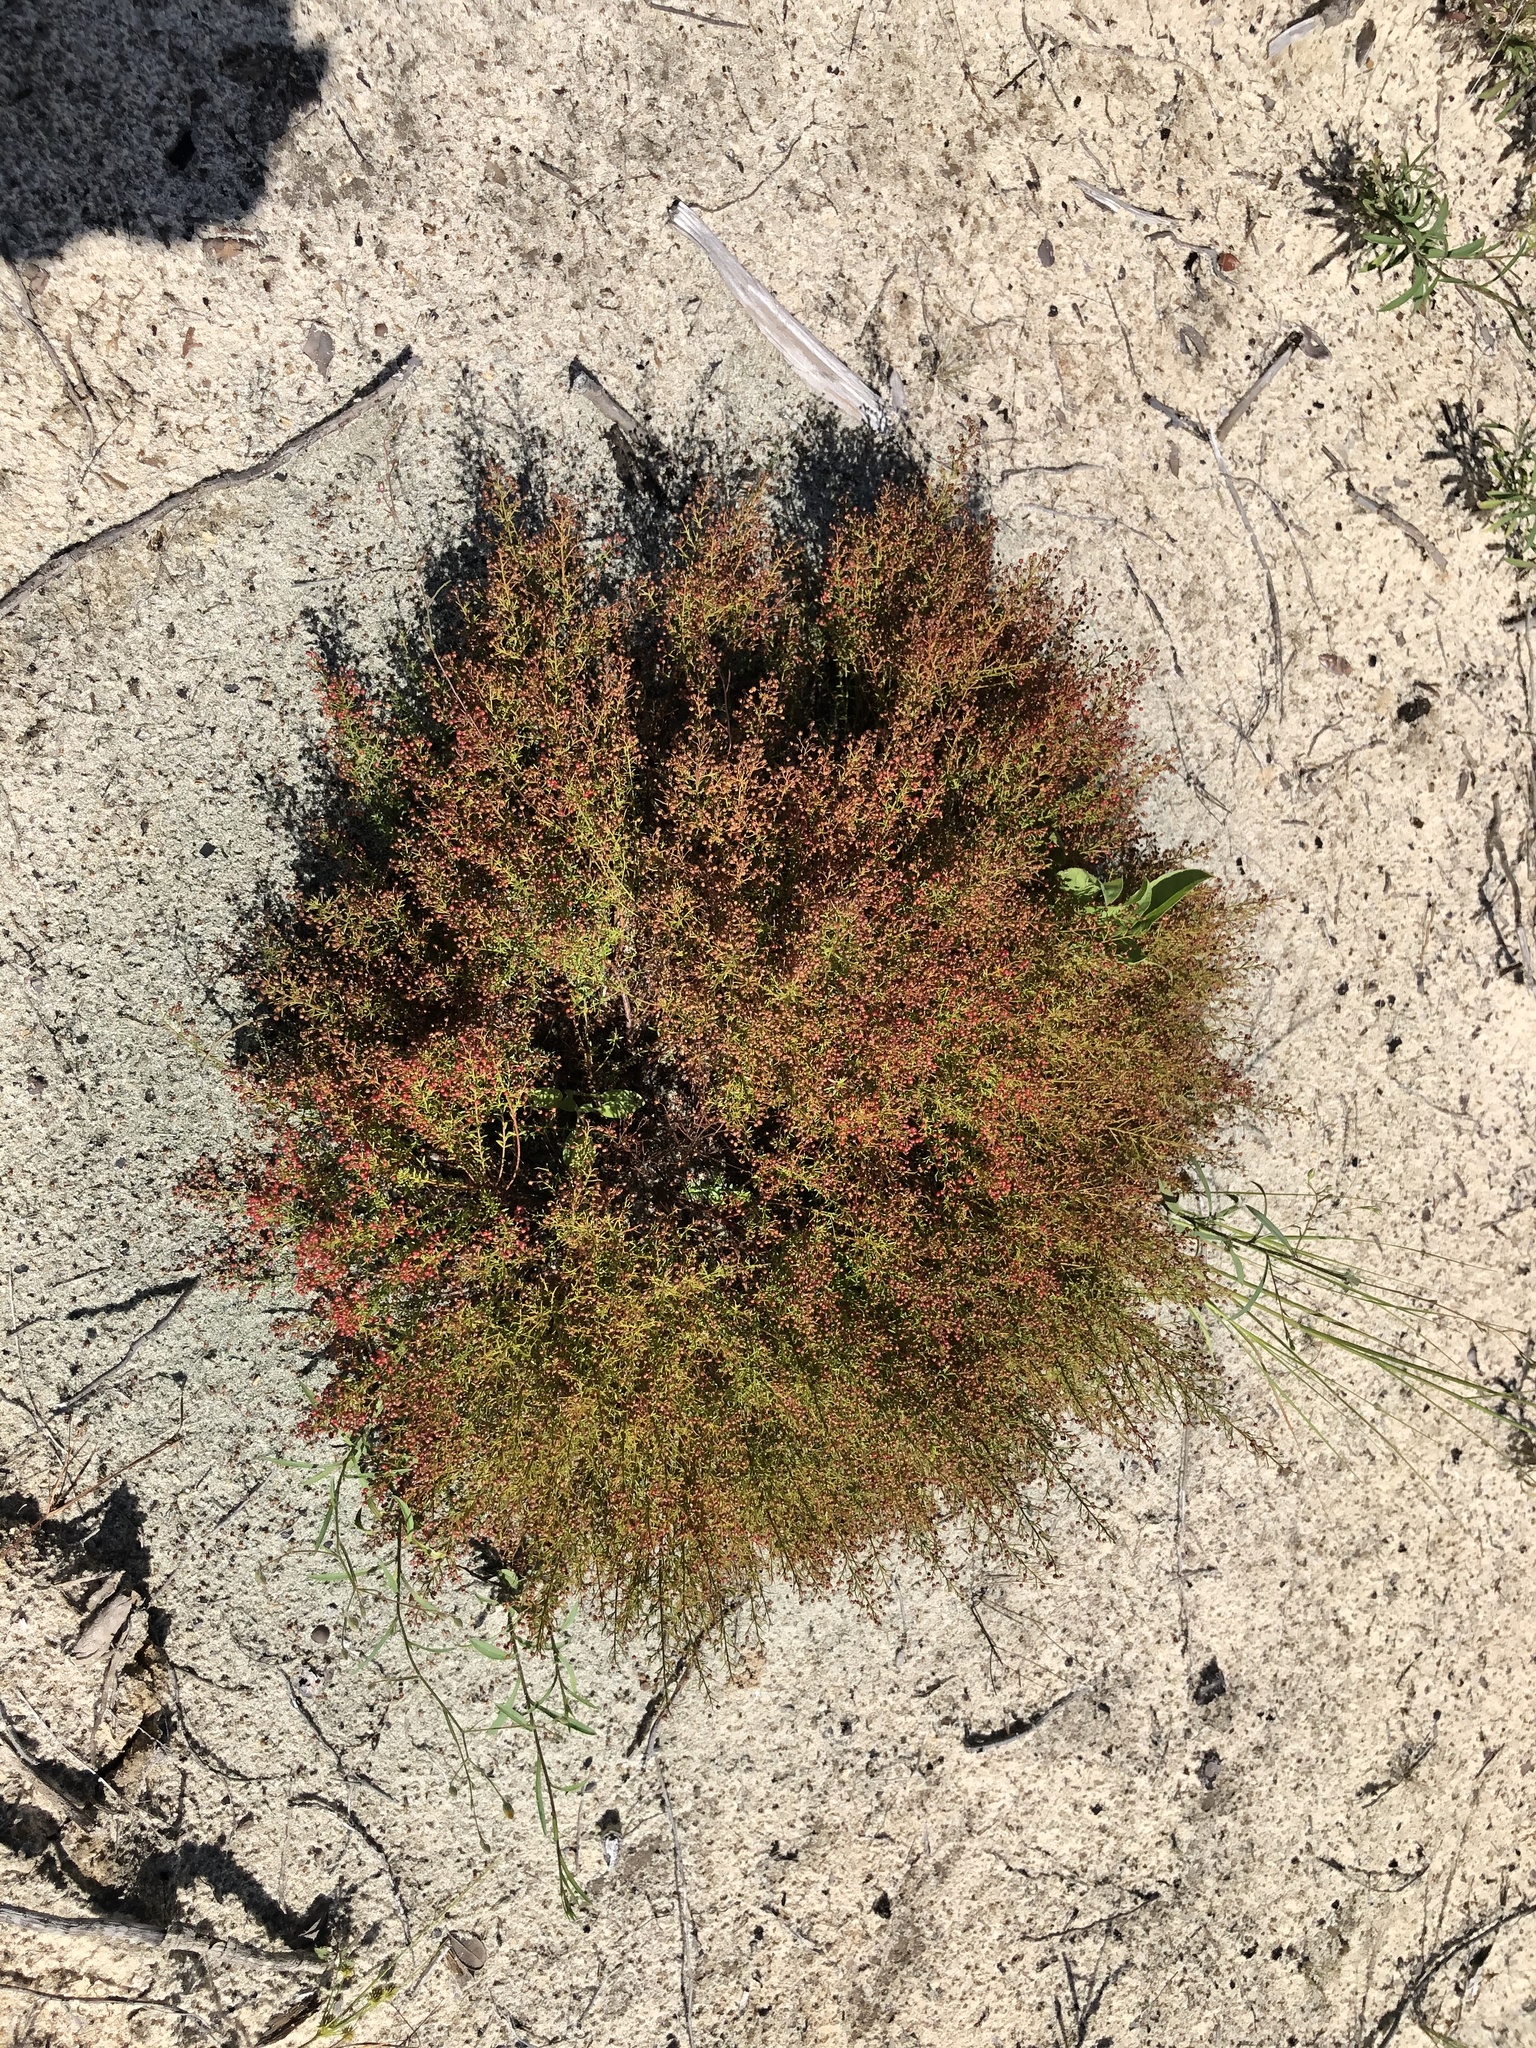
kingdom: Plantae
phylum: Tracheophyta
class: Magnoliopsida
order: Malvales
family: Cistaceae
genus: Lechea
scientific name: Lechea deckertii
